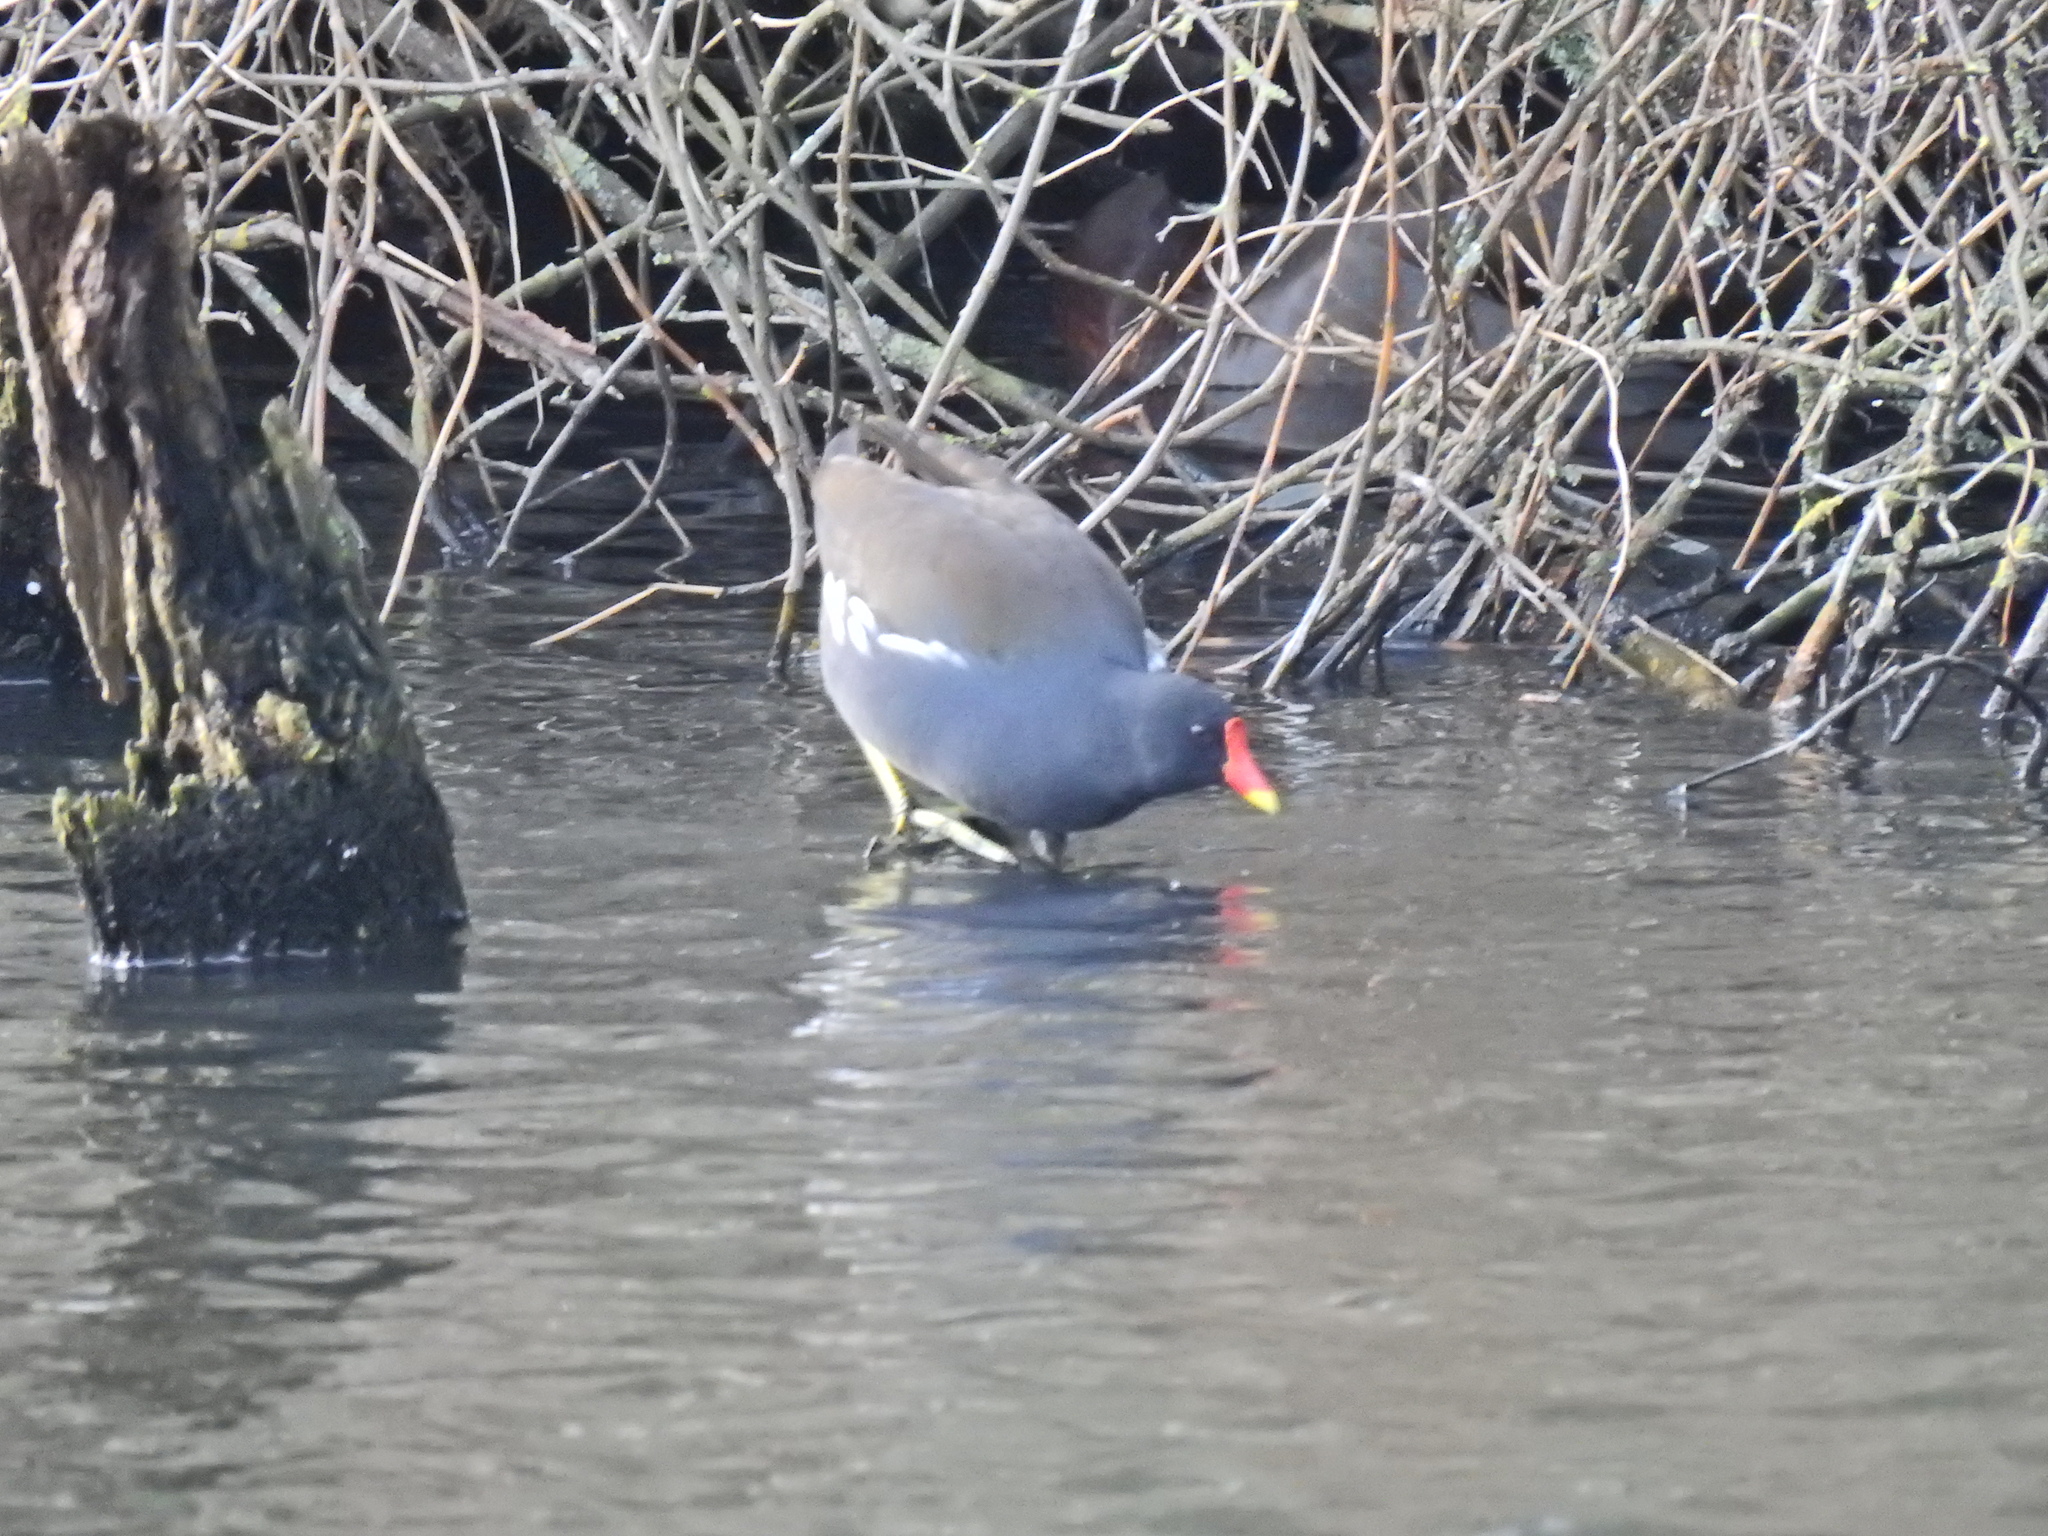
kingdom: Animalia
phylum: Chordata
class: Aves
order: Gruiformes
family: Rallidae
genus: Gallinula
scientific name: Gallinula chloropus
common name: Common moorhen
